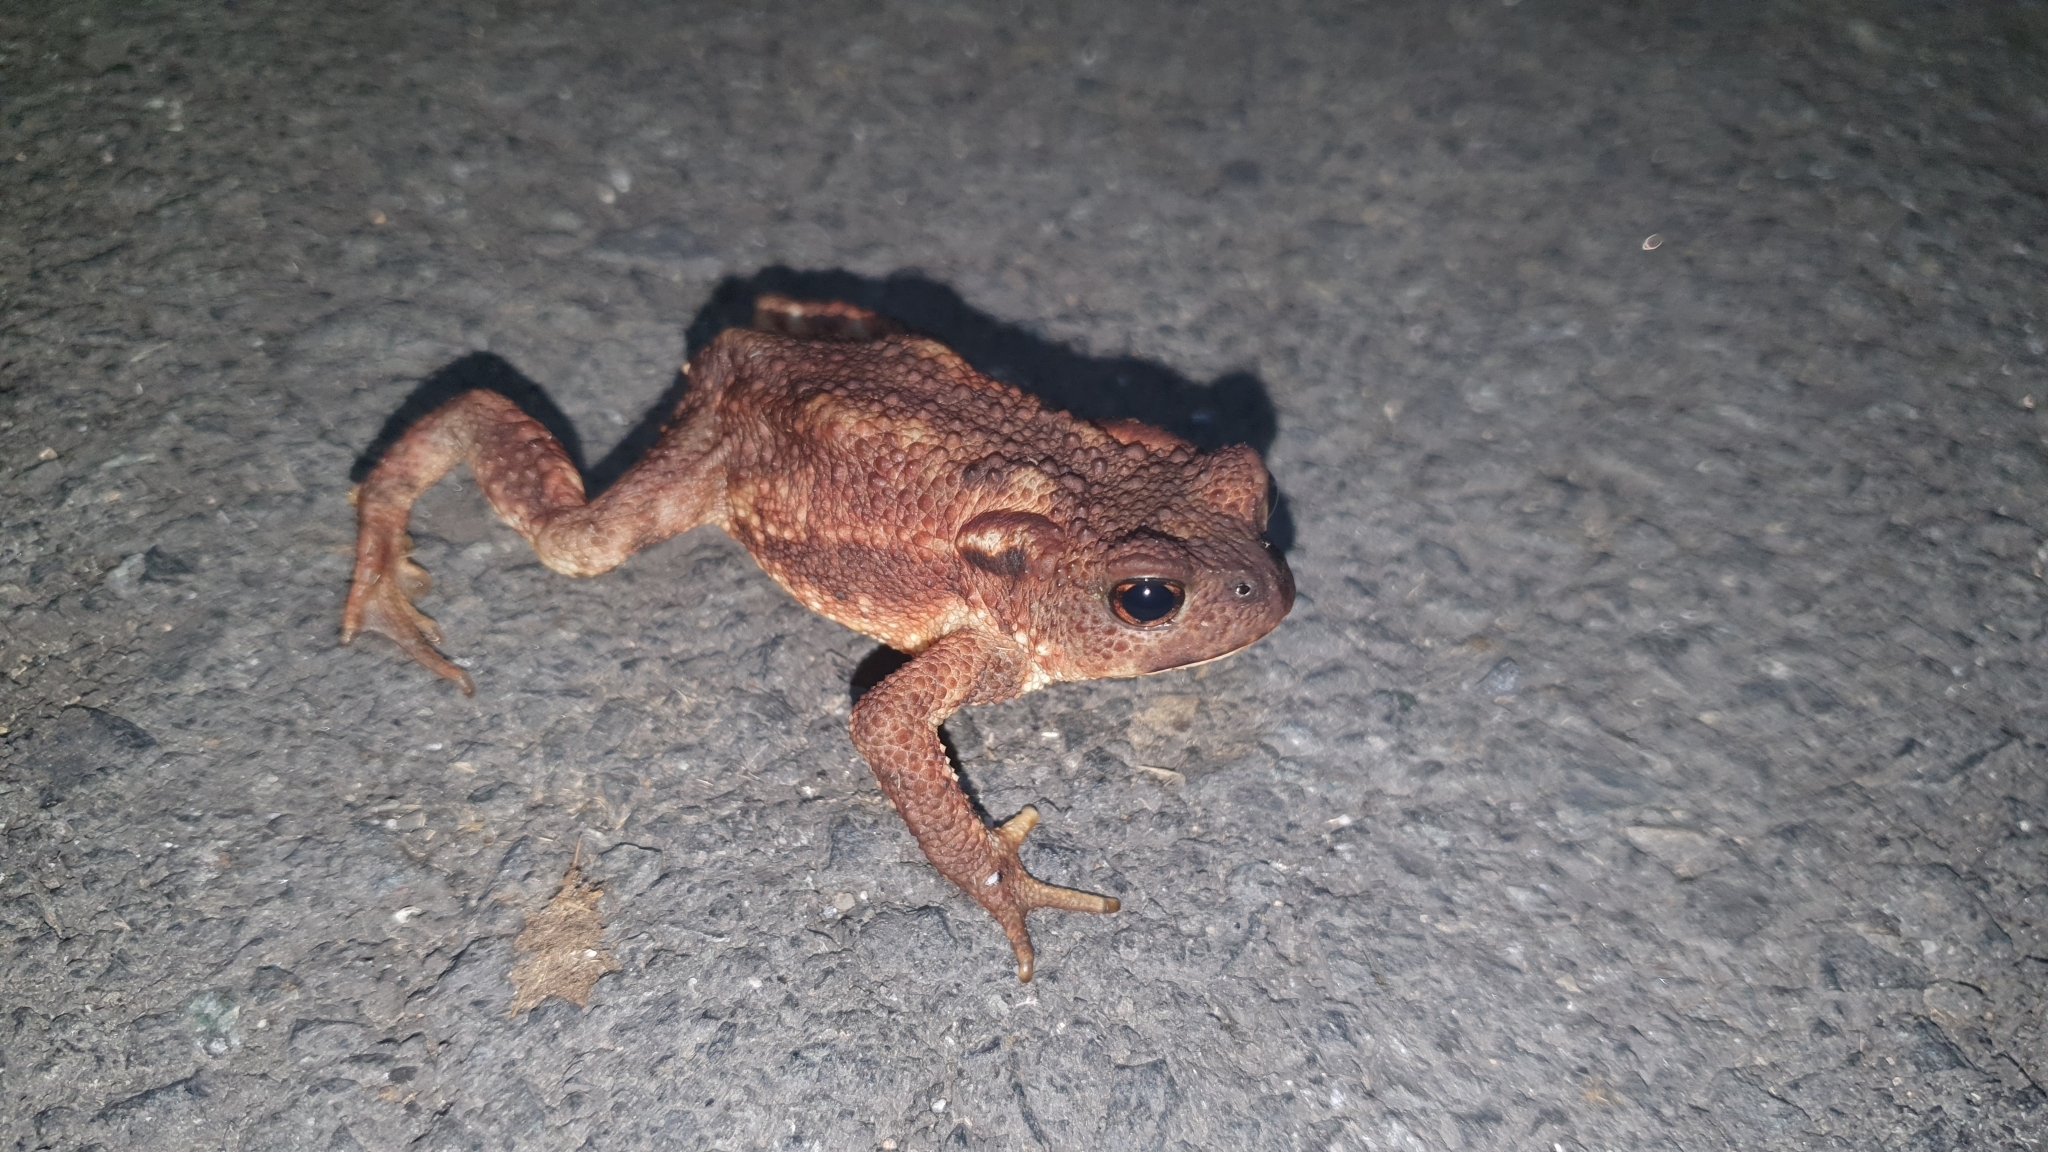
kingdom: Animalia
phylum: Chordata
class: Amphibia
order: Anura
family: Bufonidae
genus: Bufo
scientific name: Bufo spinosus
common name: Western common toad
